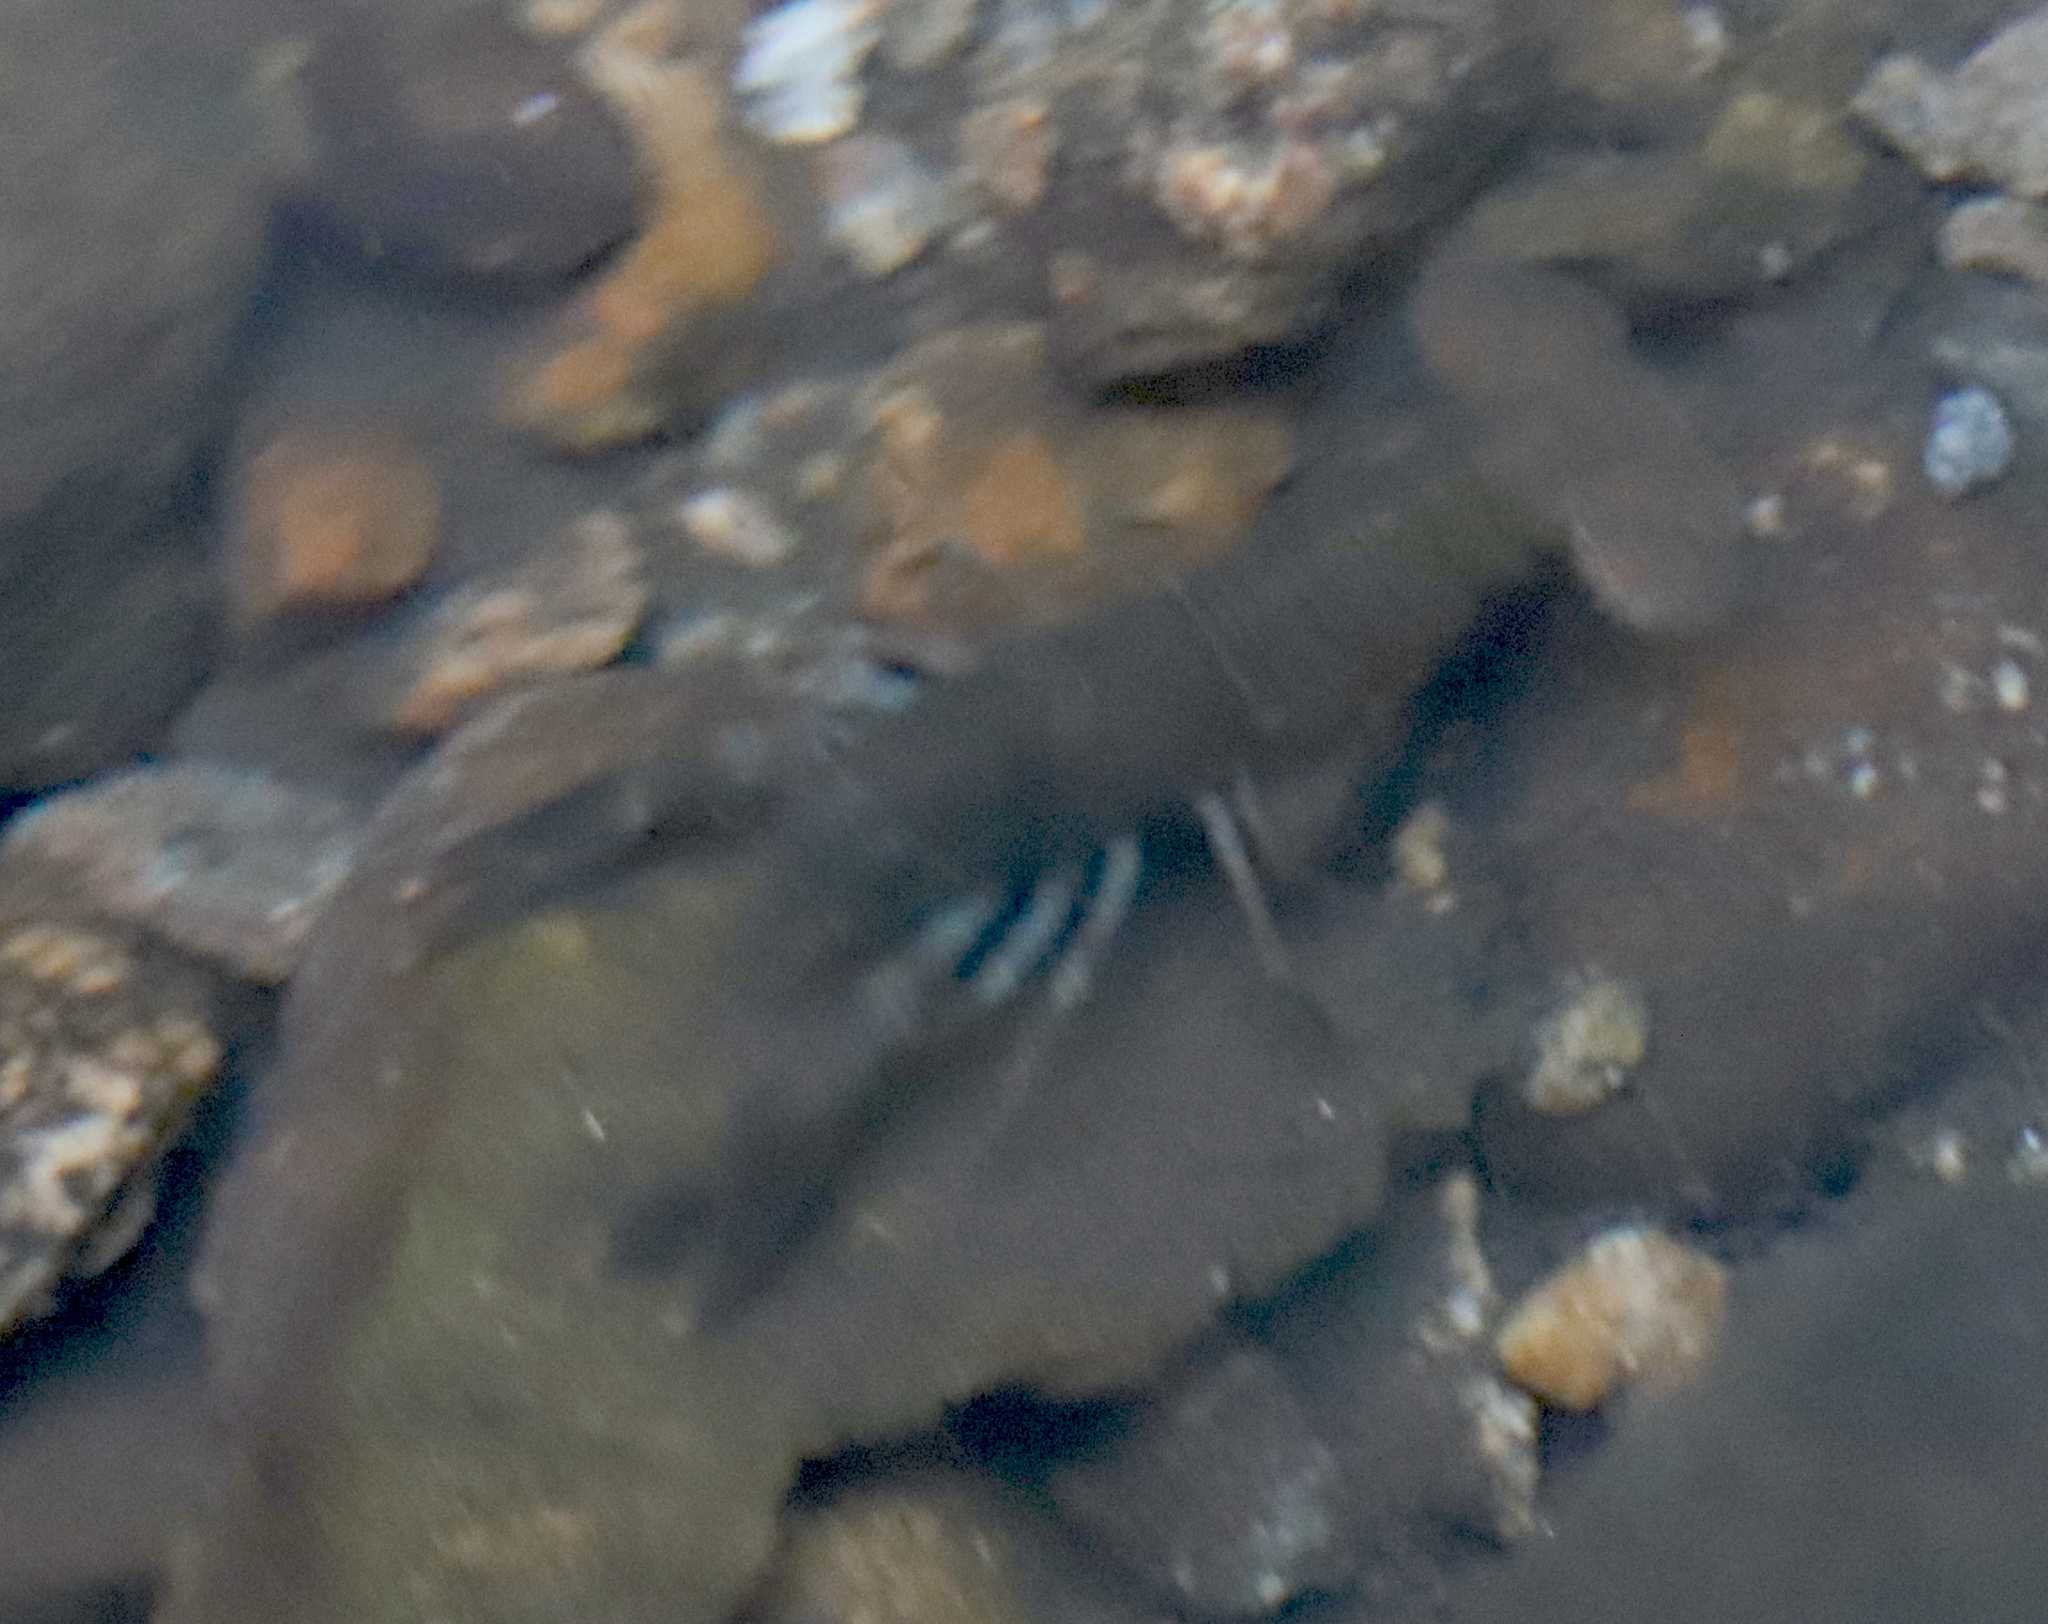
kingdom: Animalia
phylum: Arthropoda
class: Malacostraca
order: Decapoda
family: Astacidae
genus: Pacifastacus
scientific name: Pacifastacus leniusculus
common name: Signal crayfish
